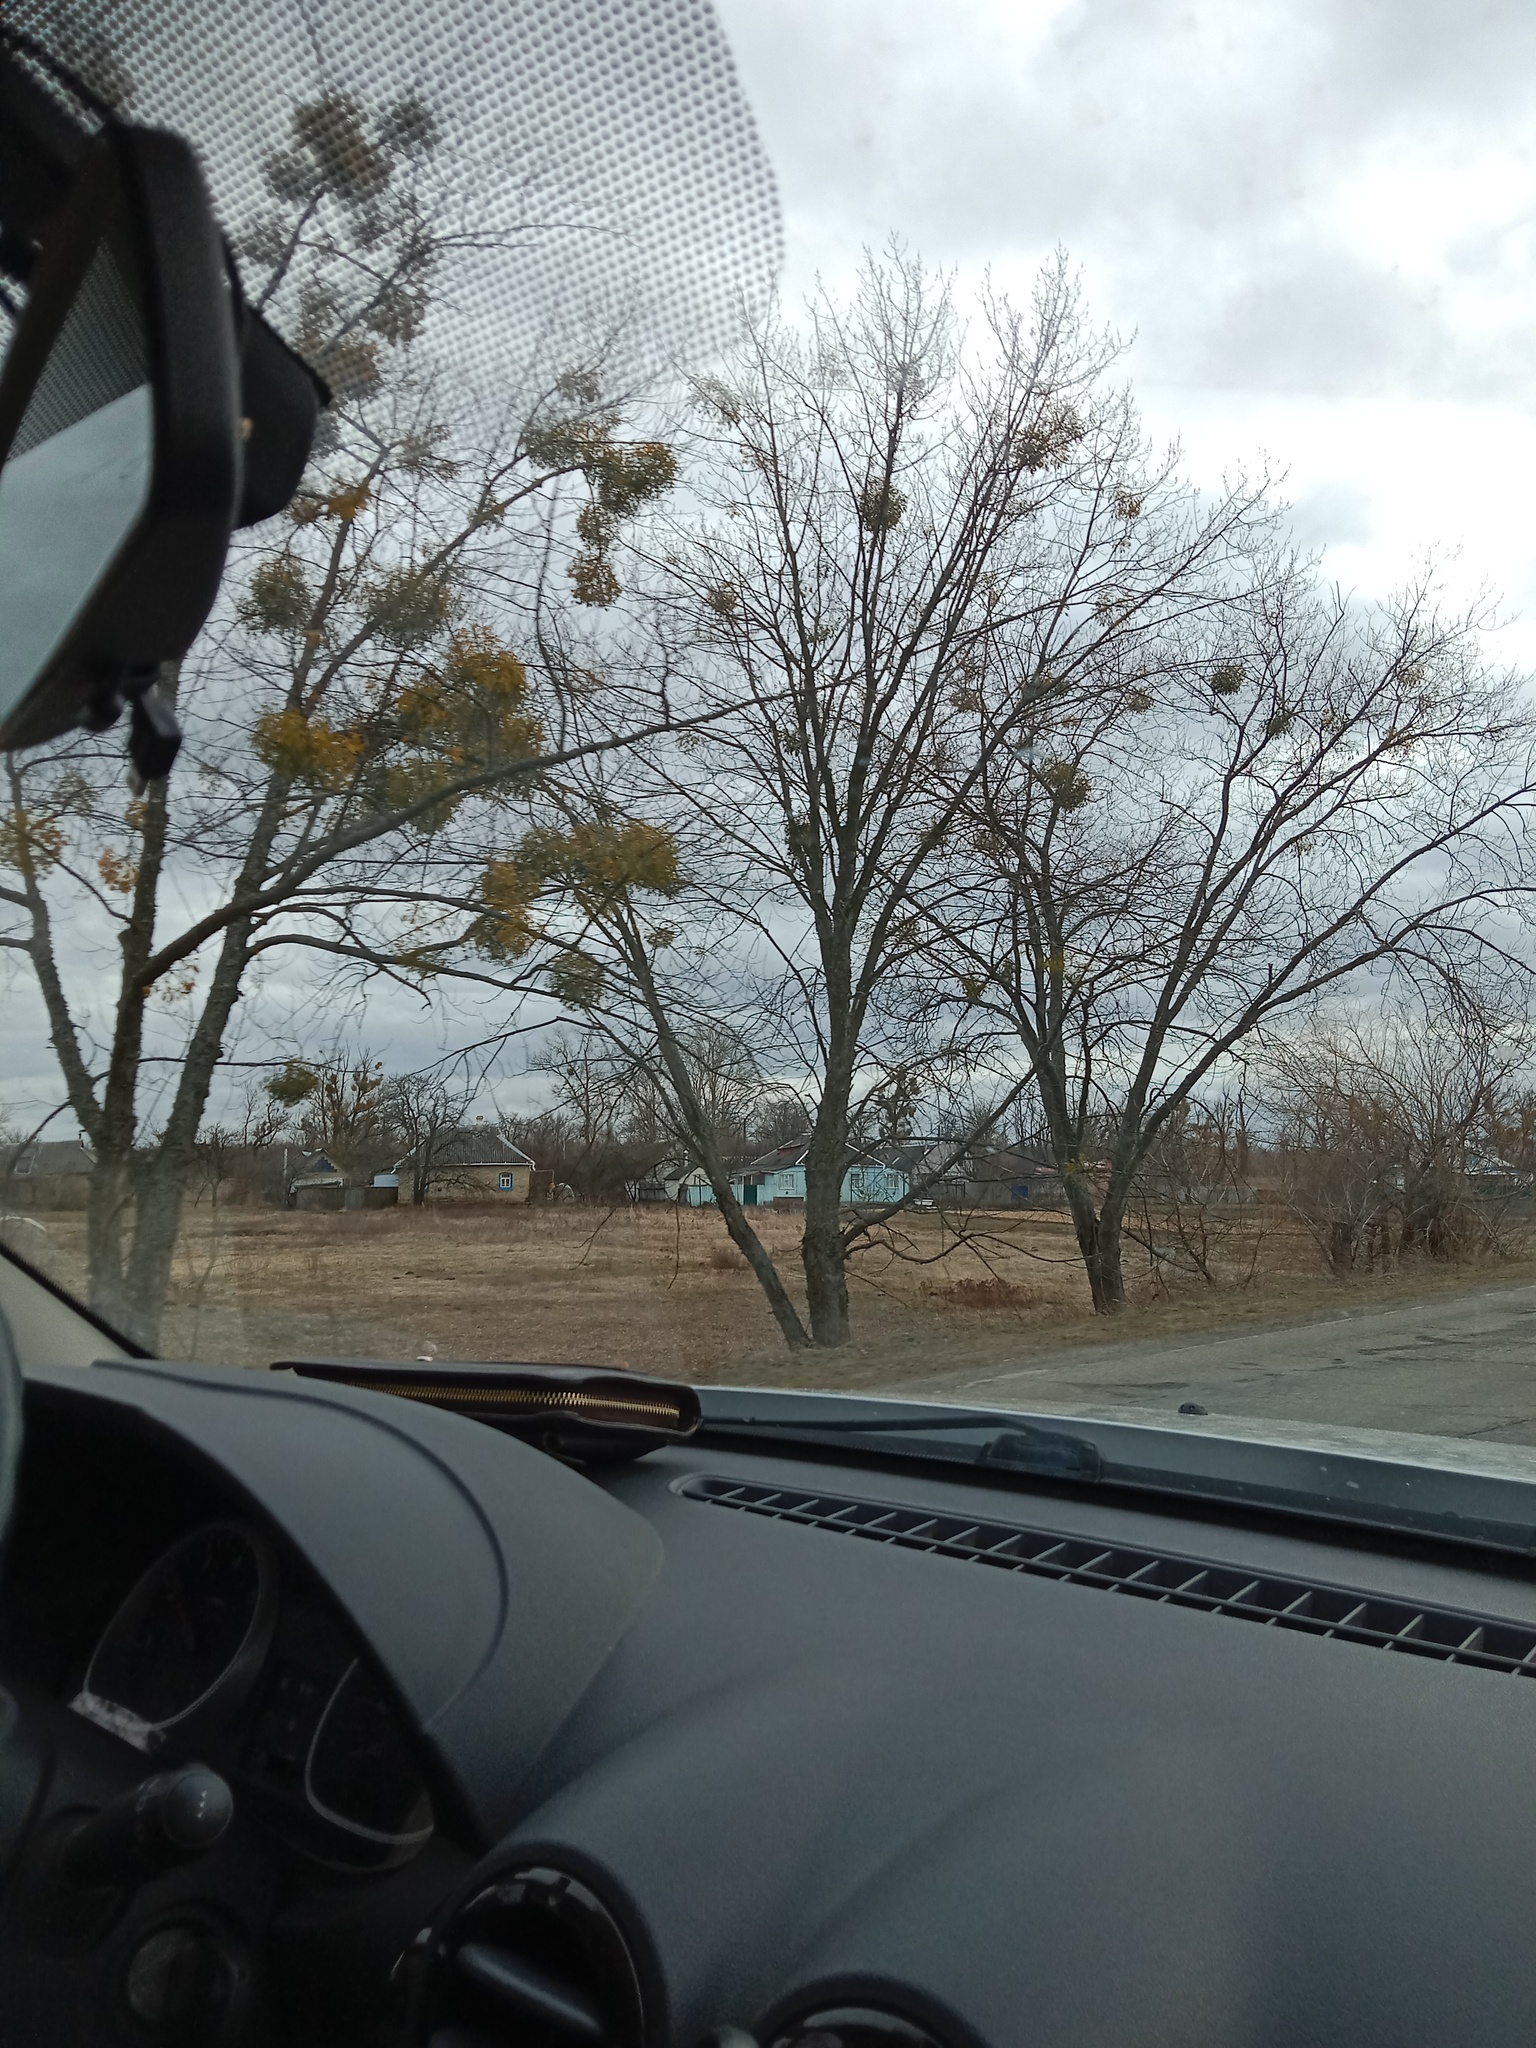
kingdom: Plantae
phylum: Tracheophyta
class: Magnoliopsida
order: Santalales
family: Viscaceae
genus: Viscum
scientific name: Viscum album
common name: Mistletoe
